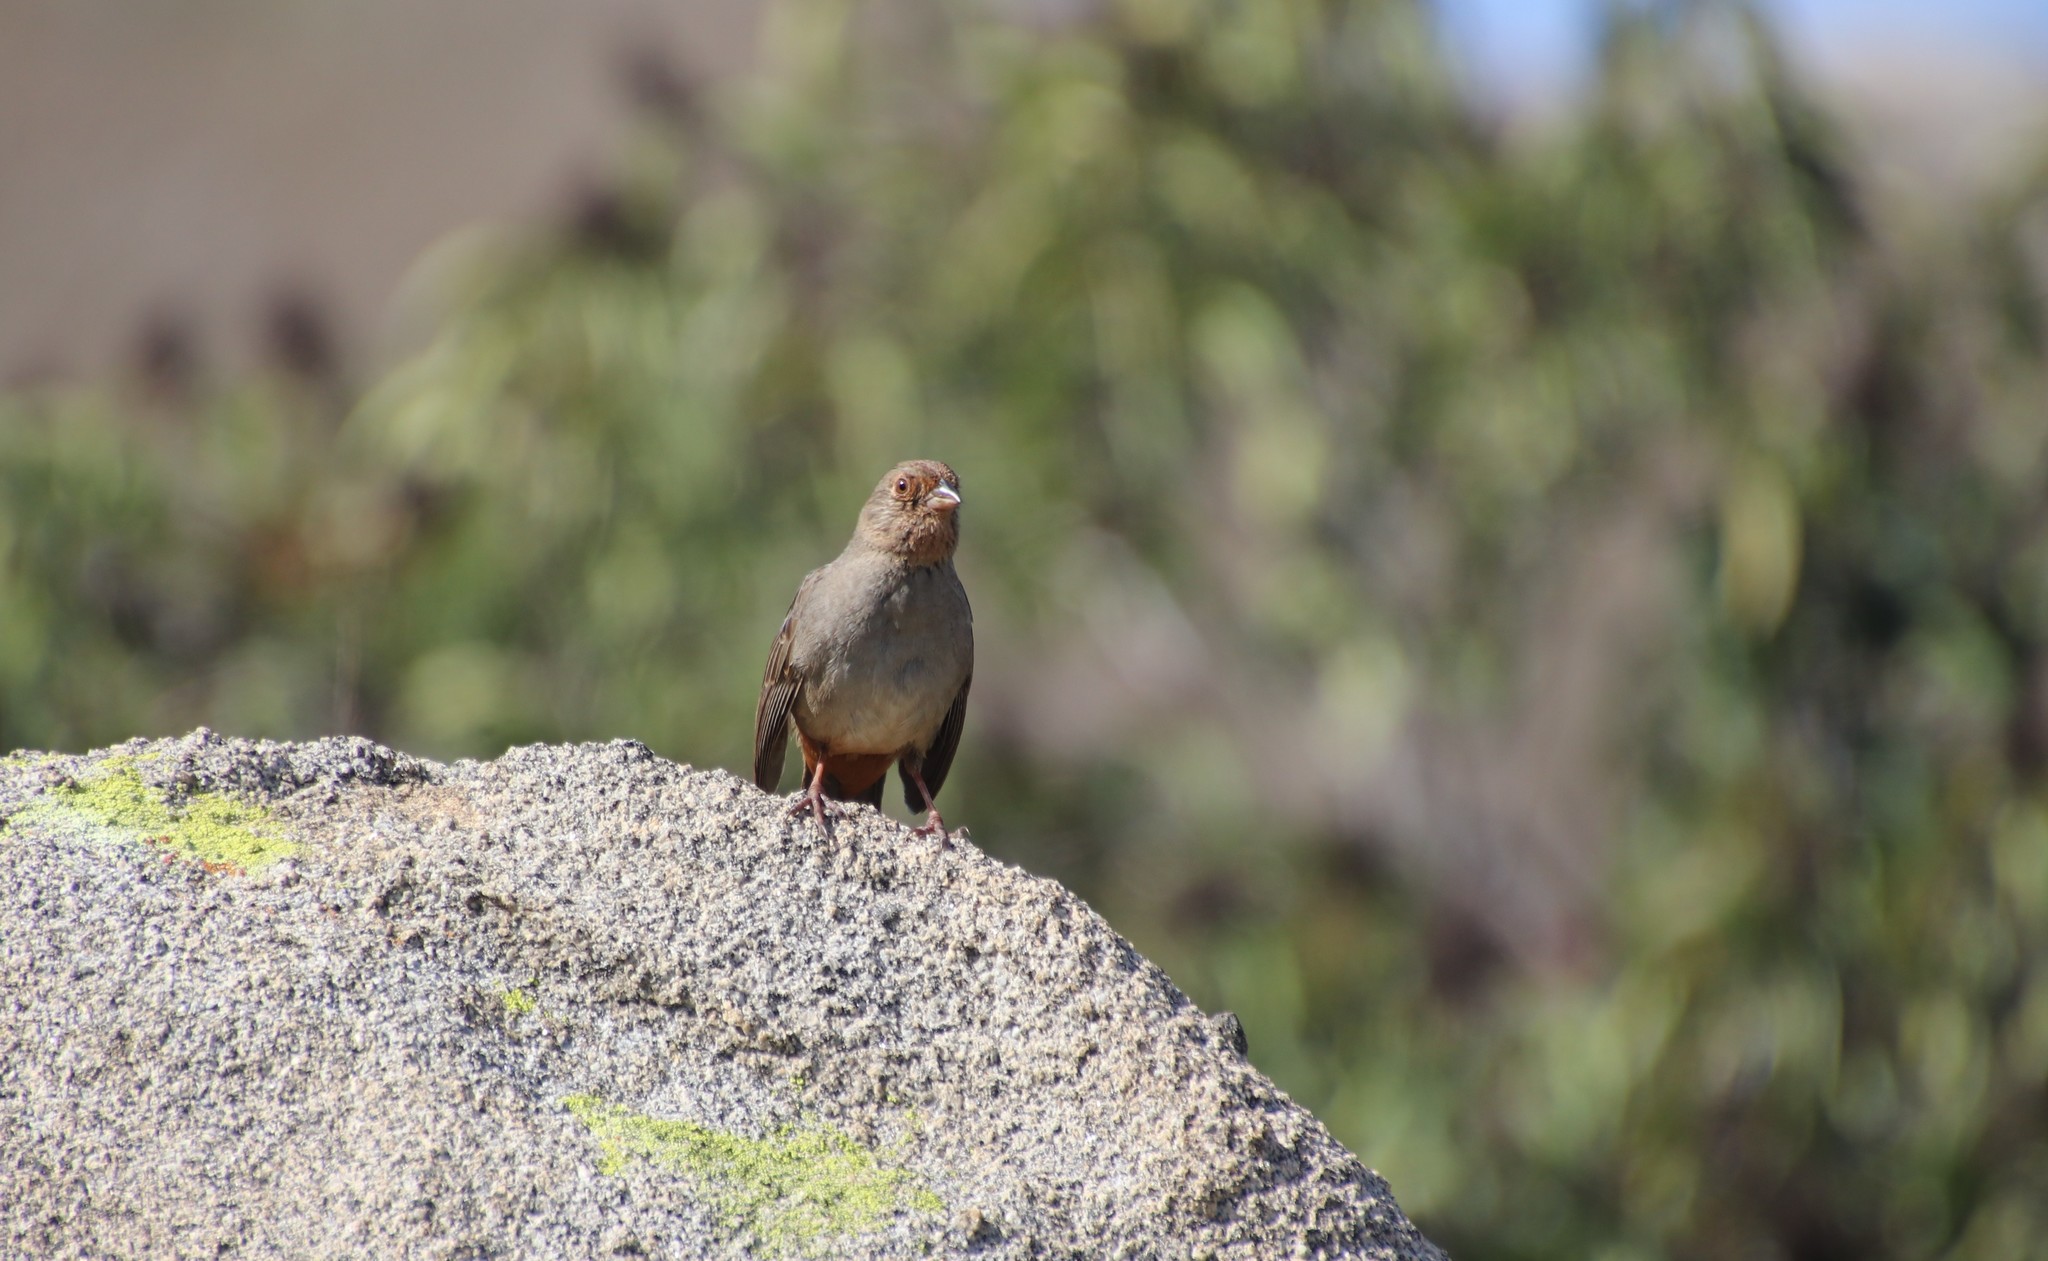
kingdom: Animalia
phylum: Chordata
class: Aves
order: Passeriformes
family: Passerellidae
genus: Melozone
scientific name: Melozone crissalis
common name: California towhee
